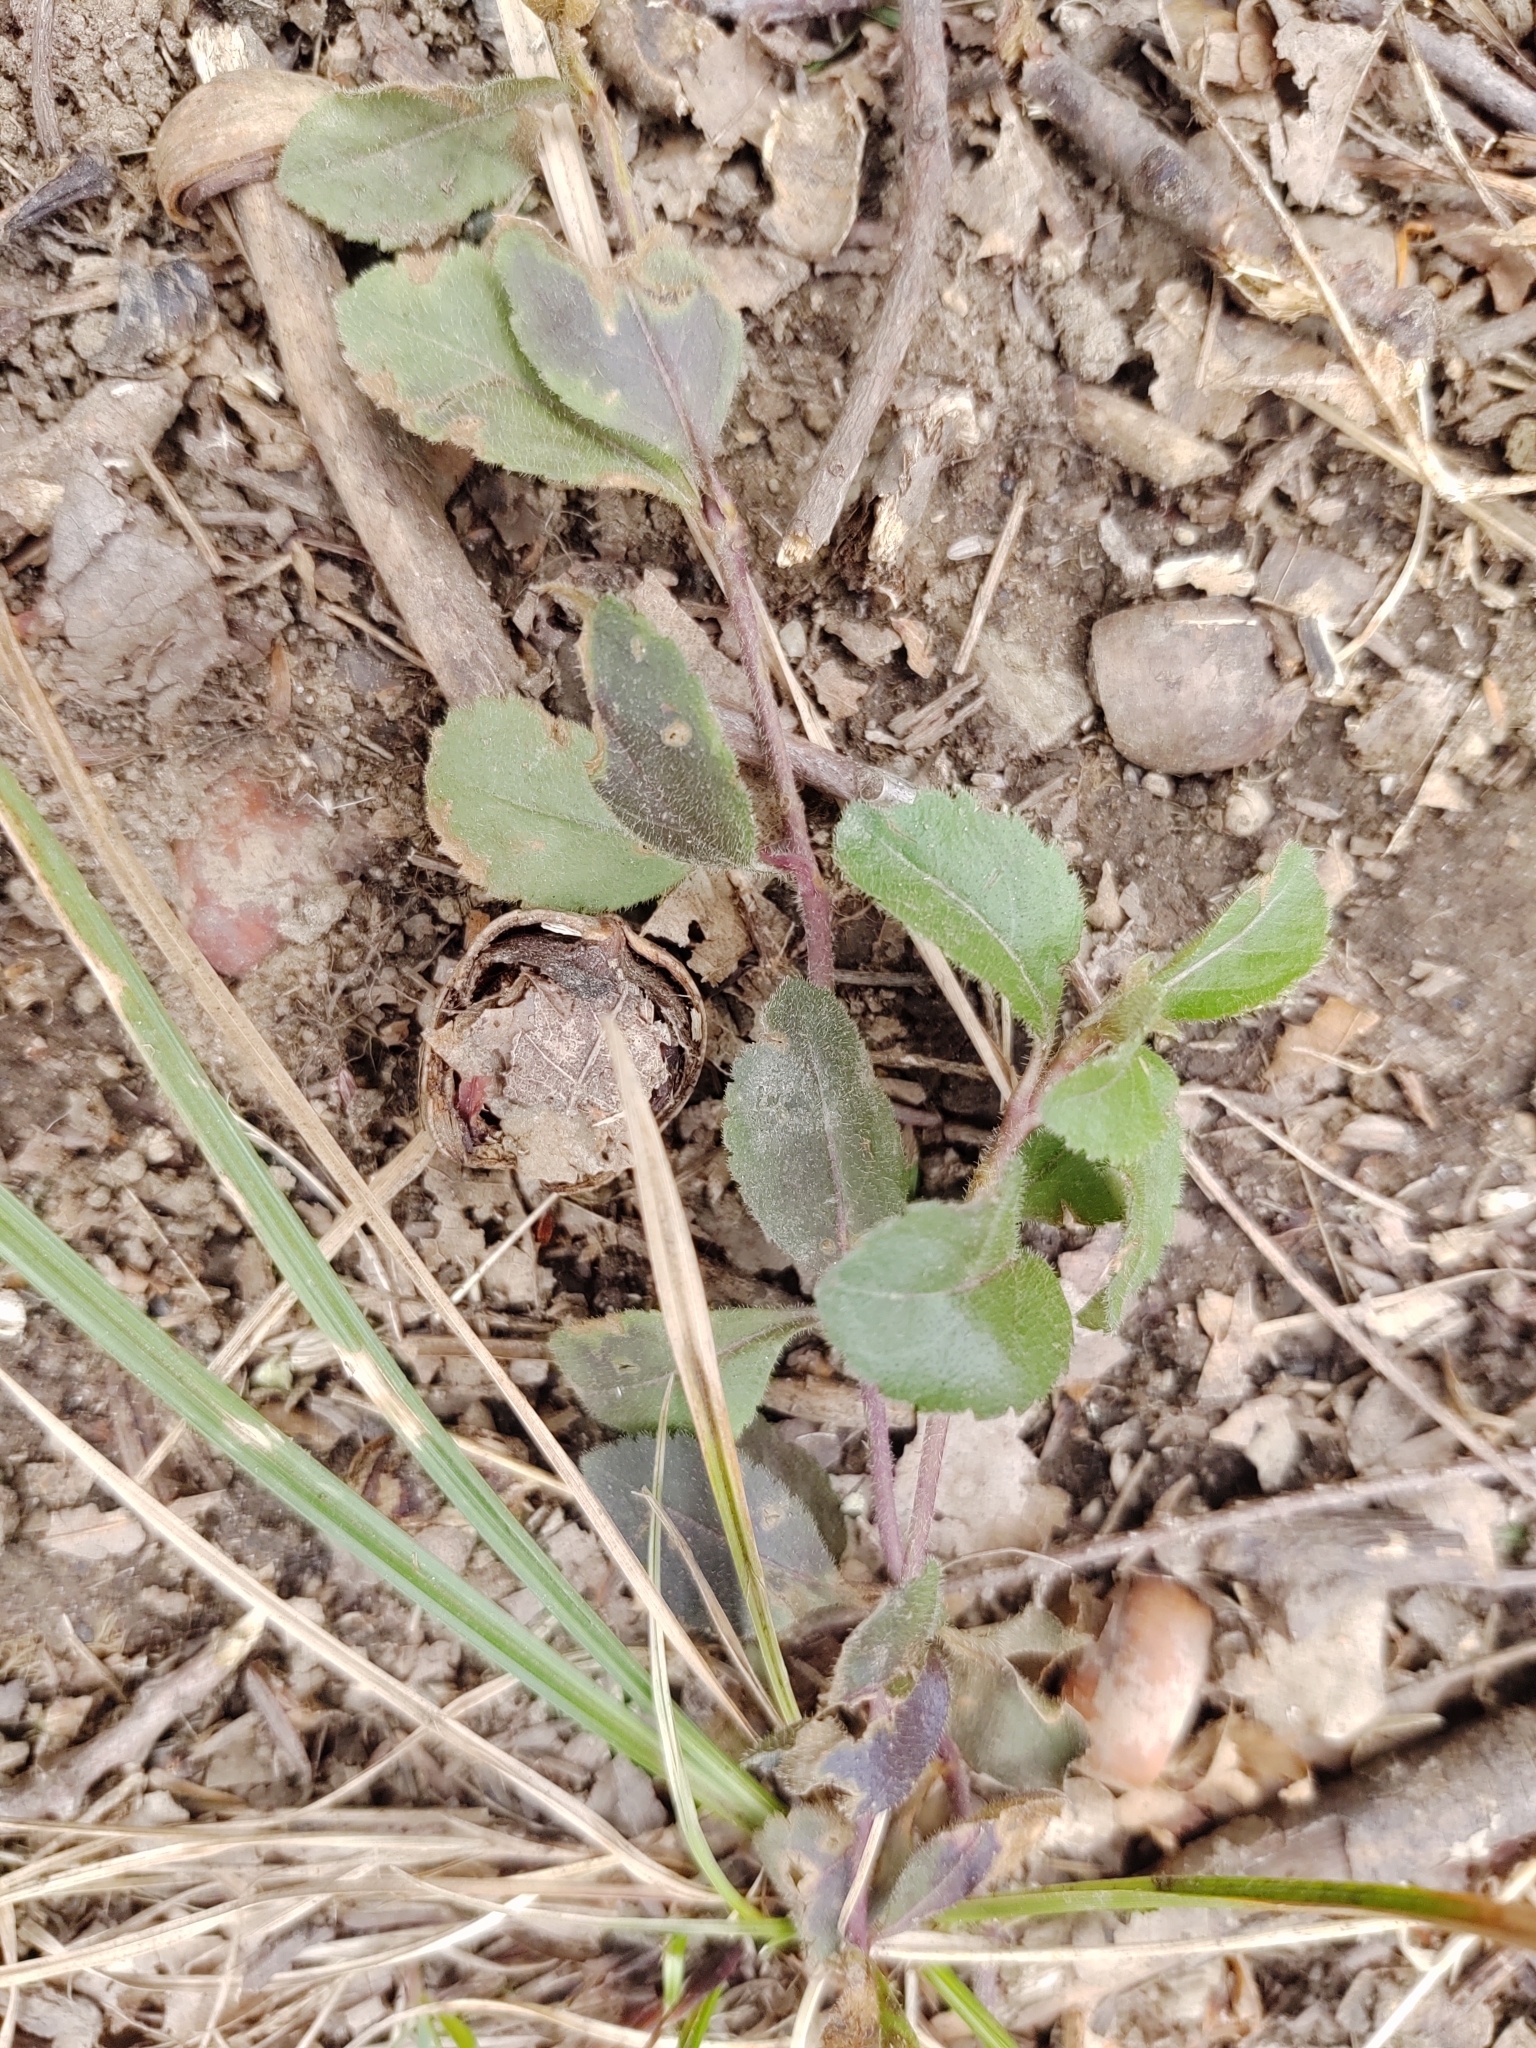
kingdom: Plantae
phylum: Tracheophyta
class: Magnoliopsida
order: Lamiales
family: Plantaginaceae
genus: Veronica
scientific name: Veronica officinalis
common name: Common speedwell
